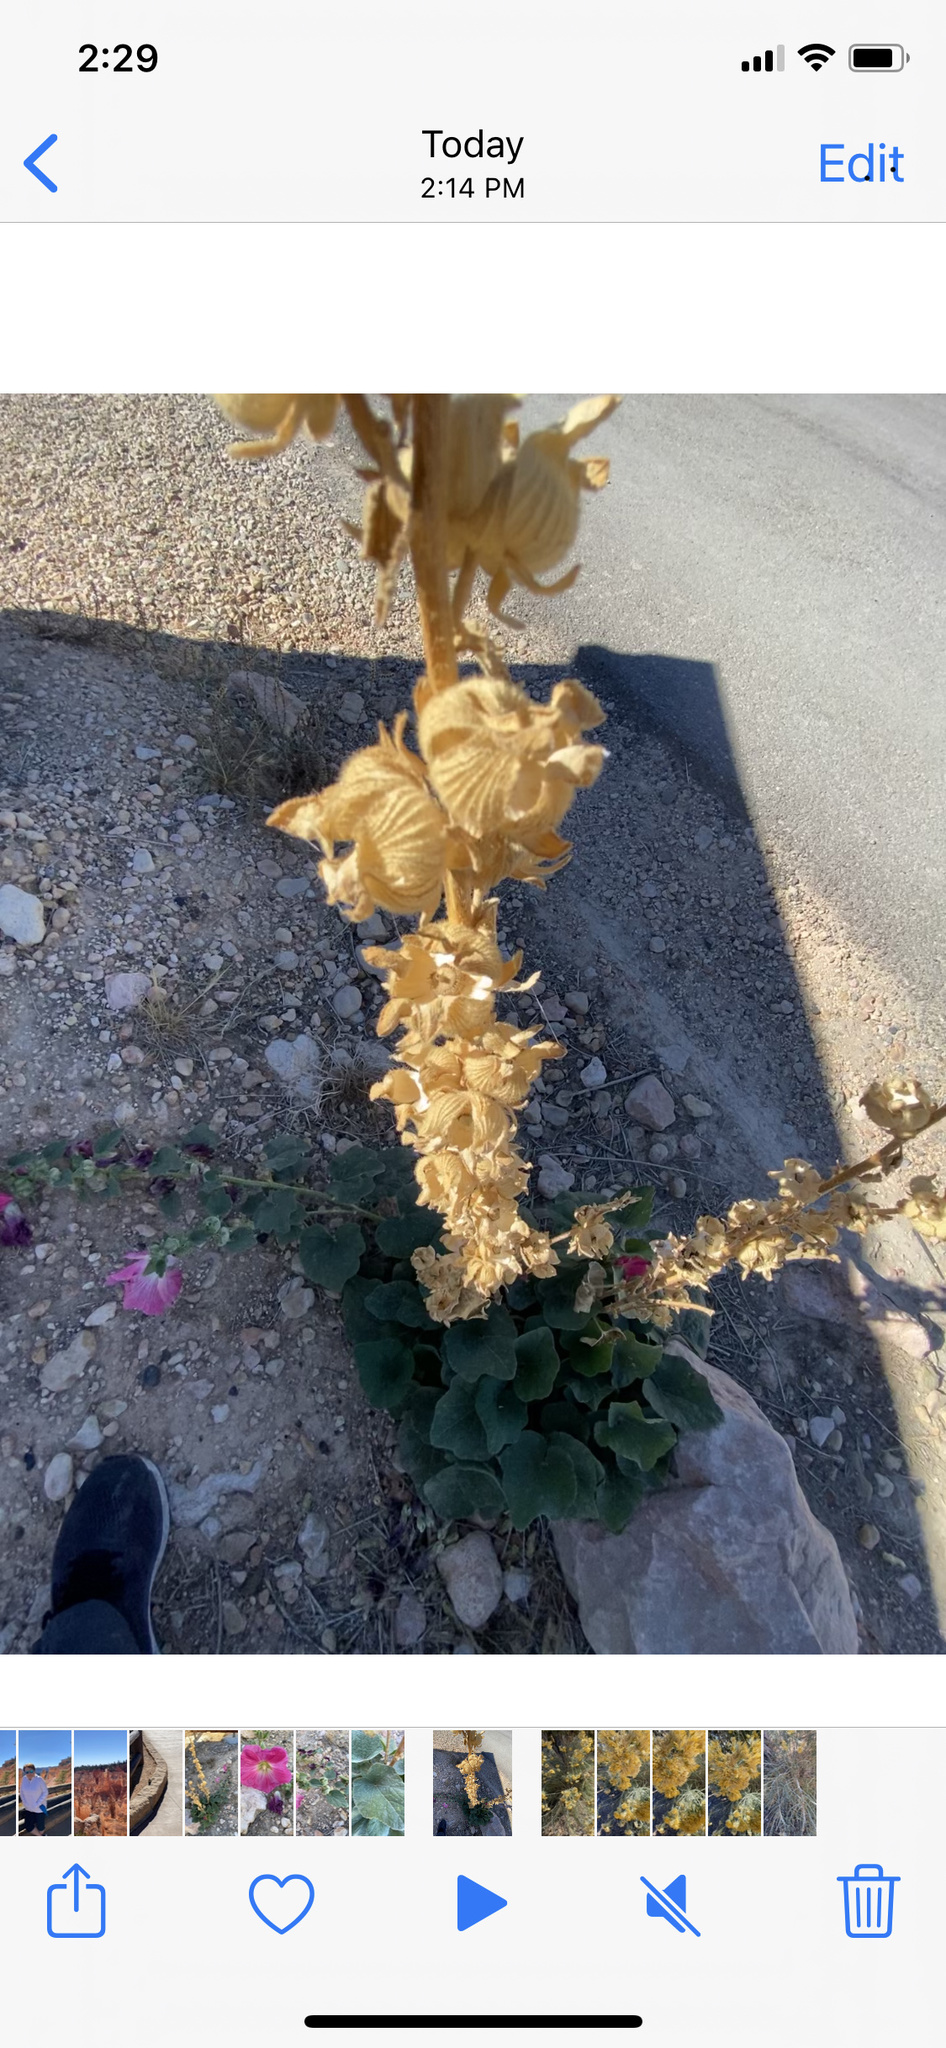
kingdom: Plantae
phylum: Tracheophyta
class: Magnoliopsida
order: Malvales
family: Malvaceae
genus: Alcea
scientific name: Alcea rosea
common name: Hollyhock
